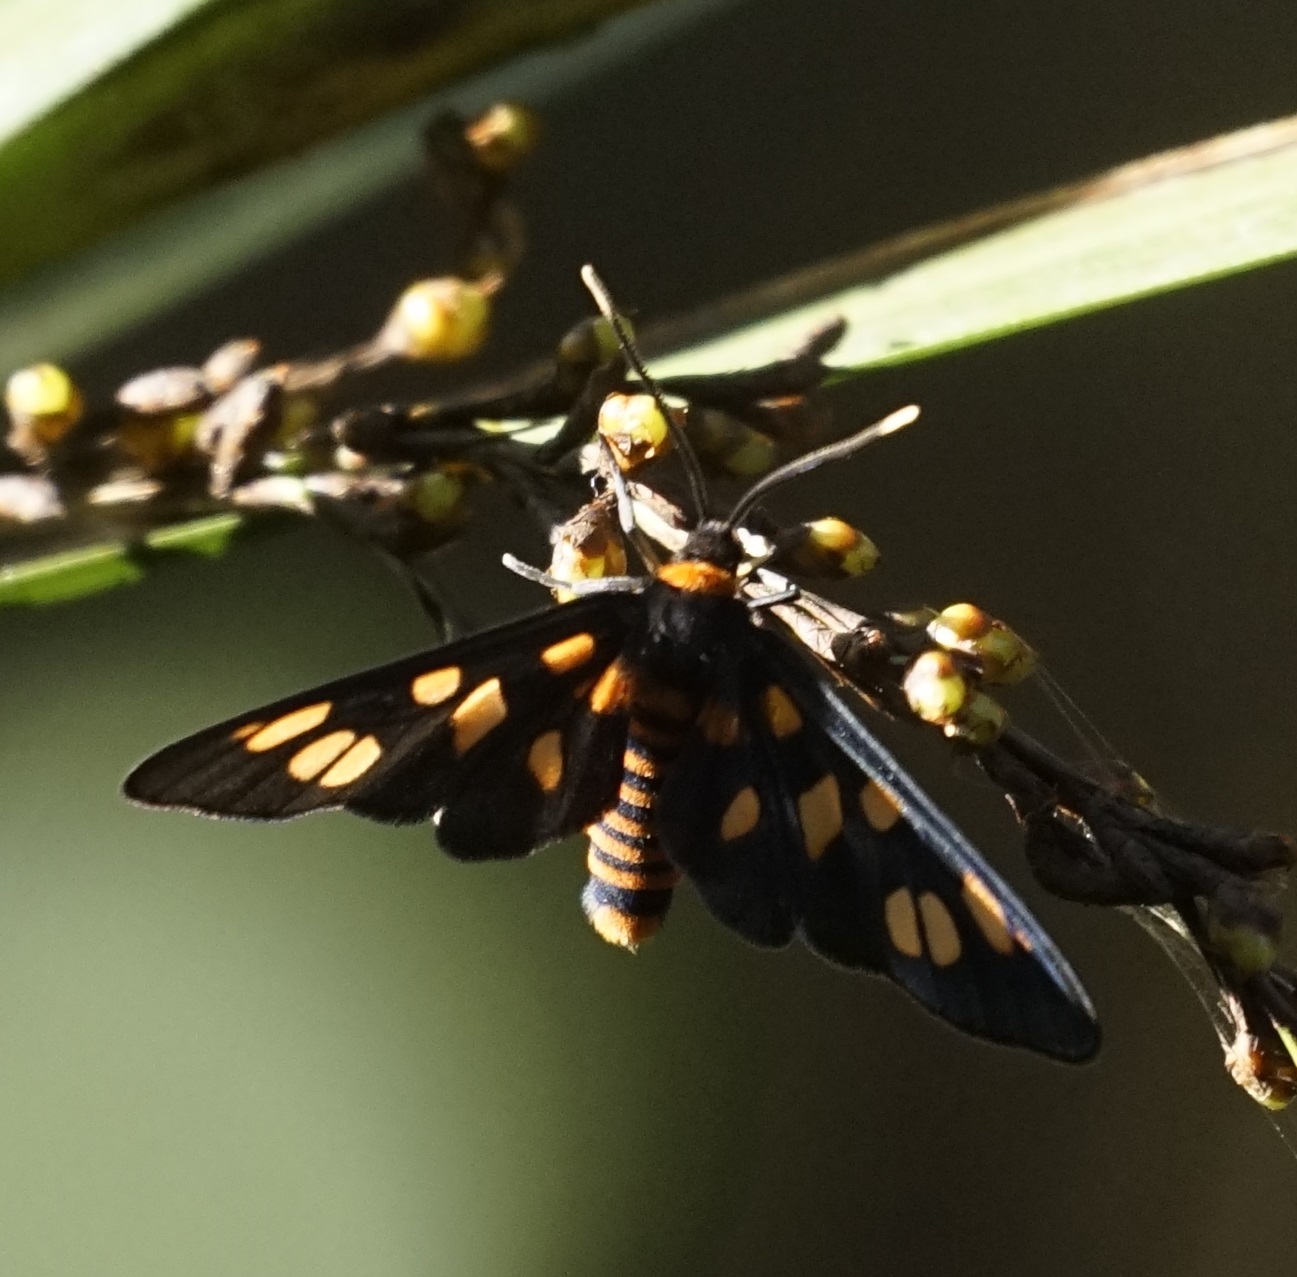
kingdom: Animalia
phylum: Arthropoda
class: Insecta
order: Lepidoptera
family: Erebidae
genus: Amata
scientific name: Amata nigriceps
